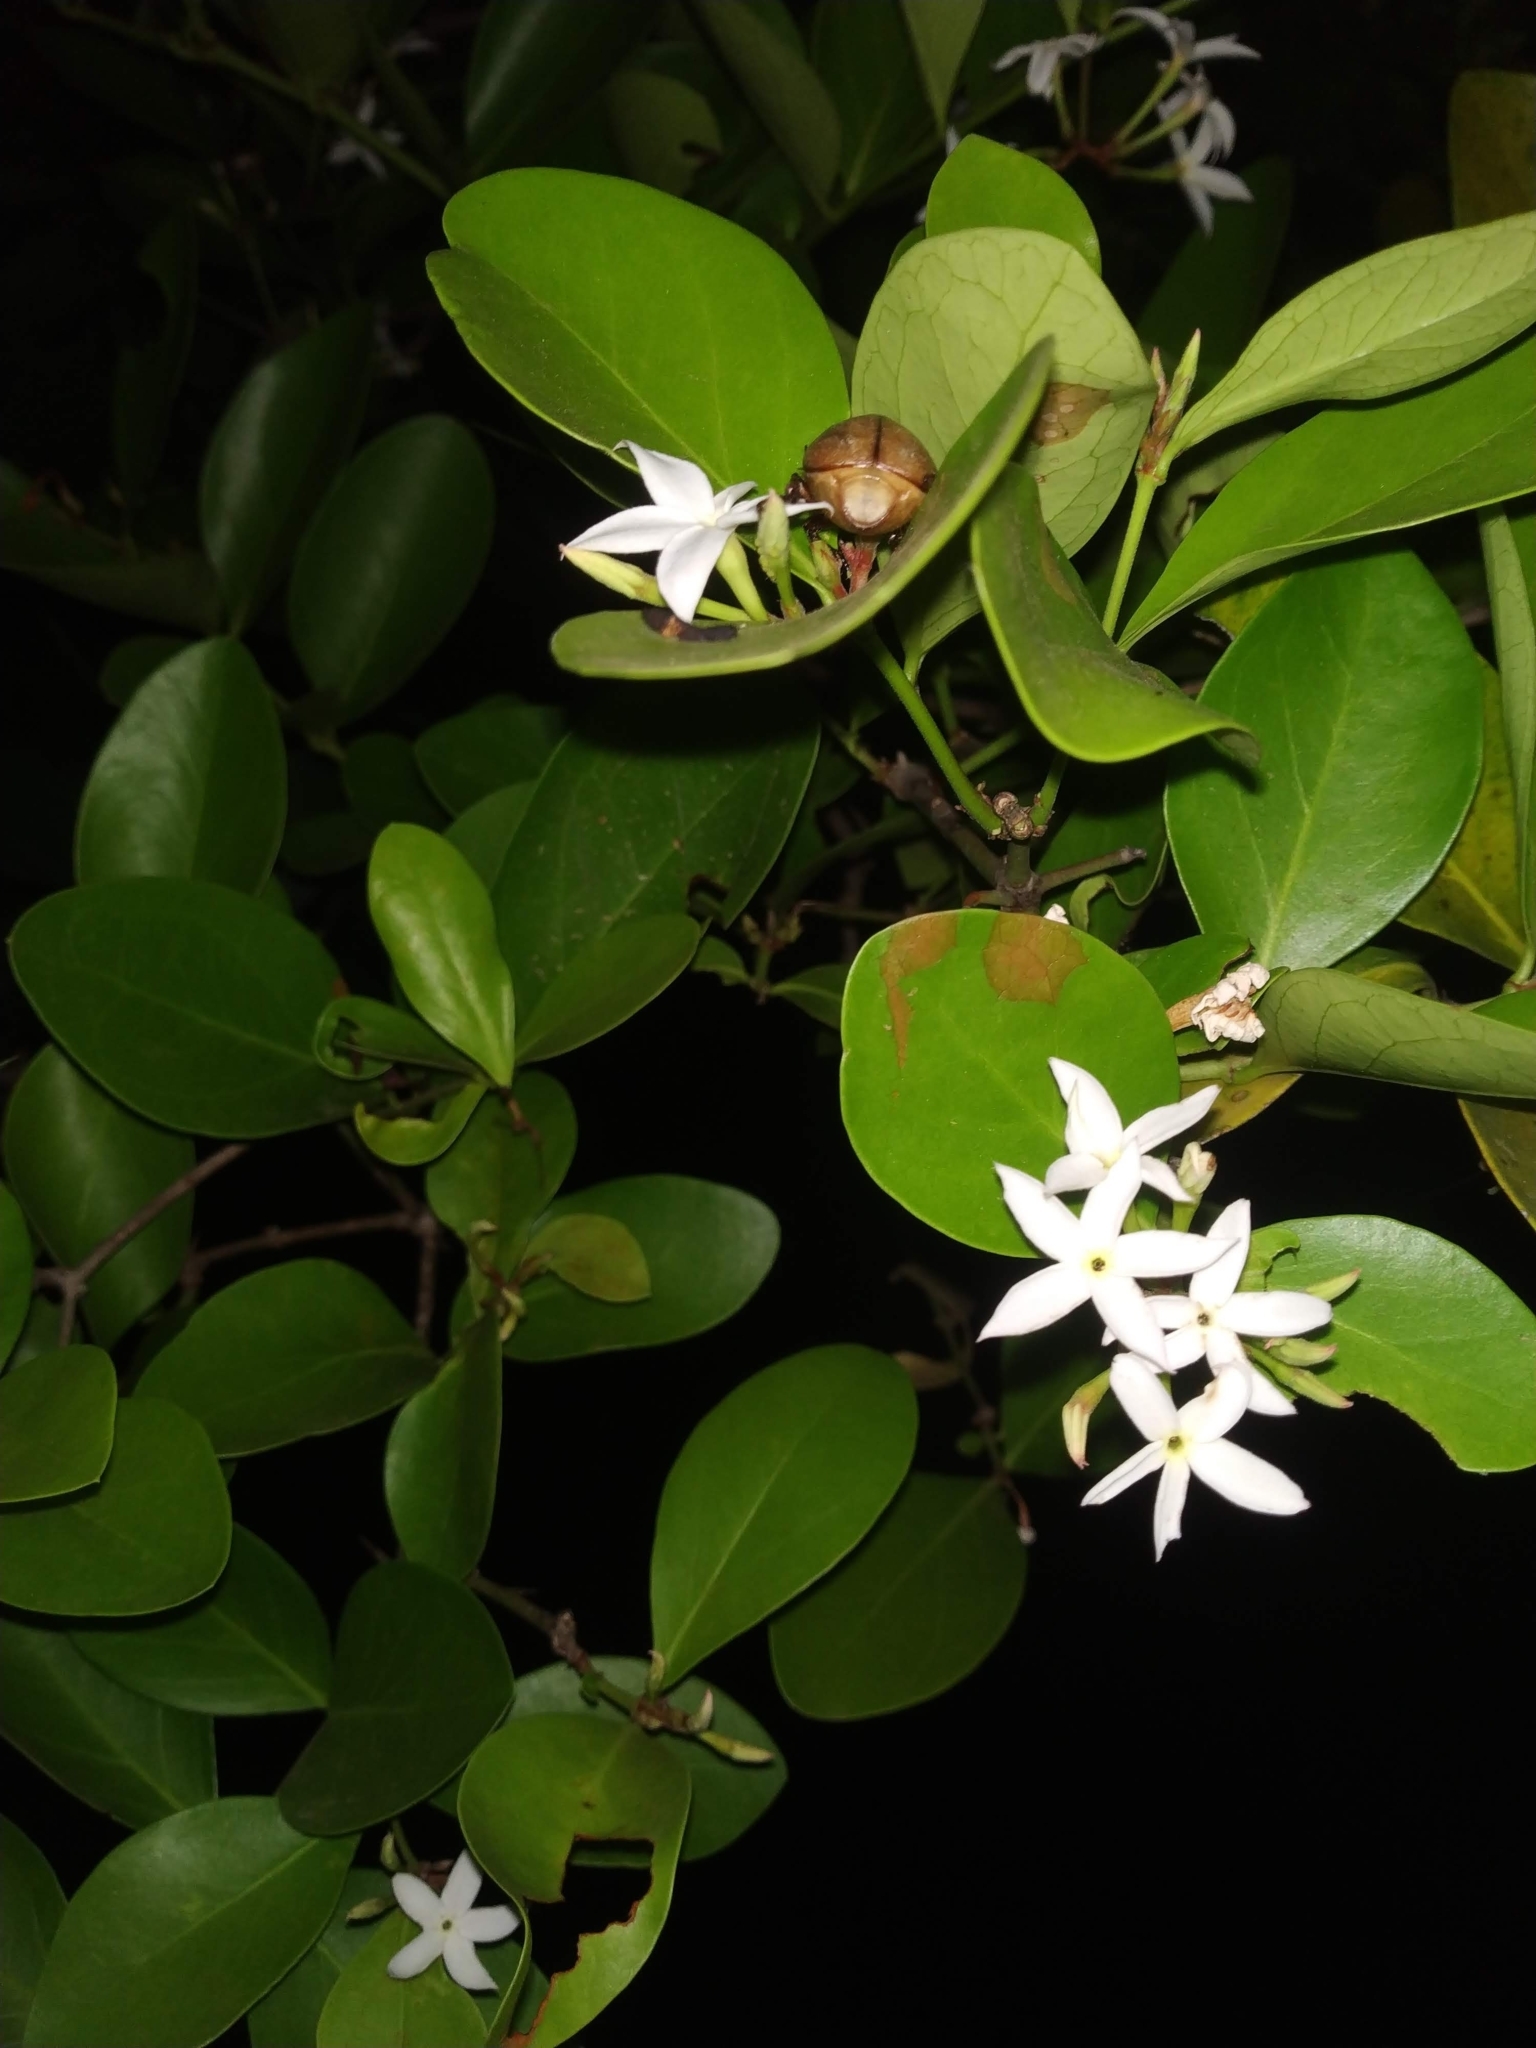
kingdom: Plantae
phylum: Tracheophyta
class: Magnoliopsida
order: Gentianales
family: Apocynaceae
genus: Carissa
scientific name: Carissa carandas
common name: Karanda
